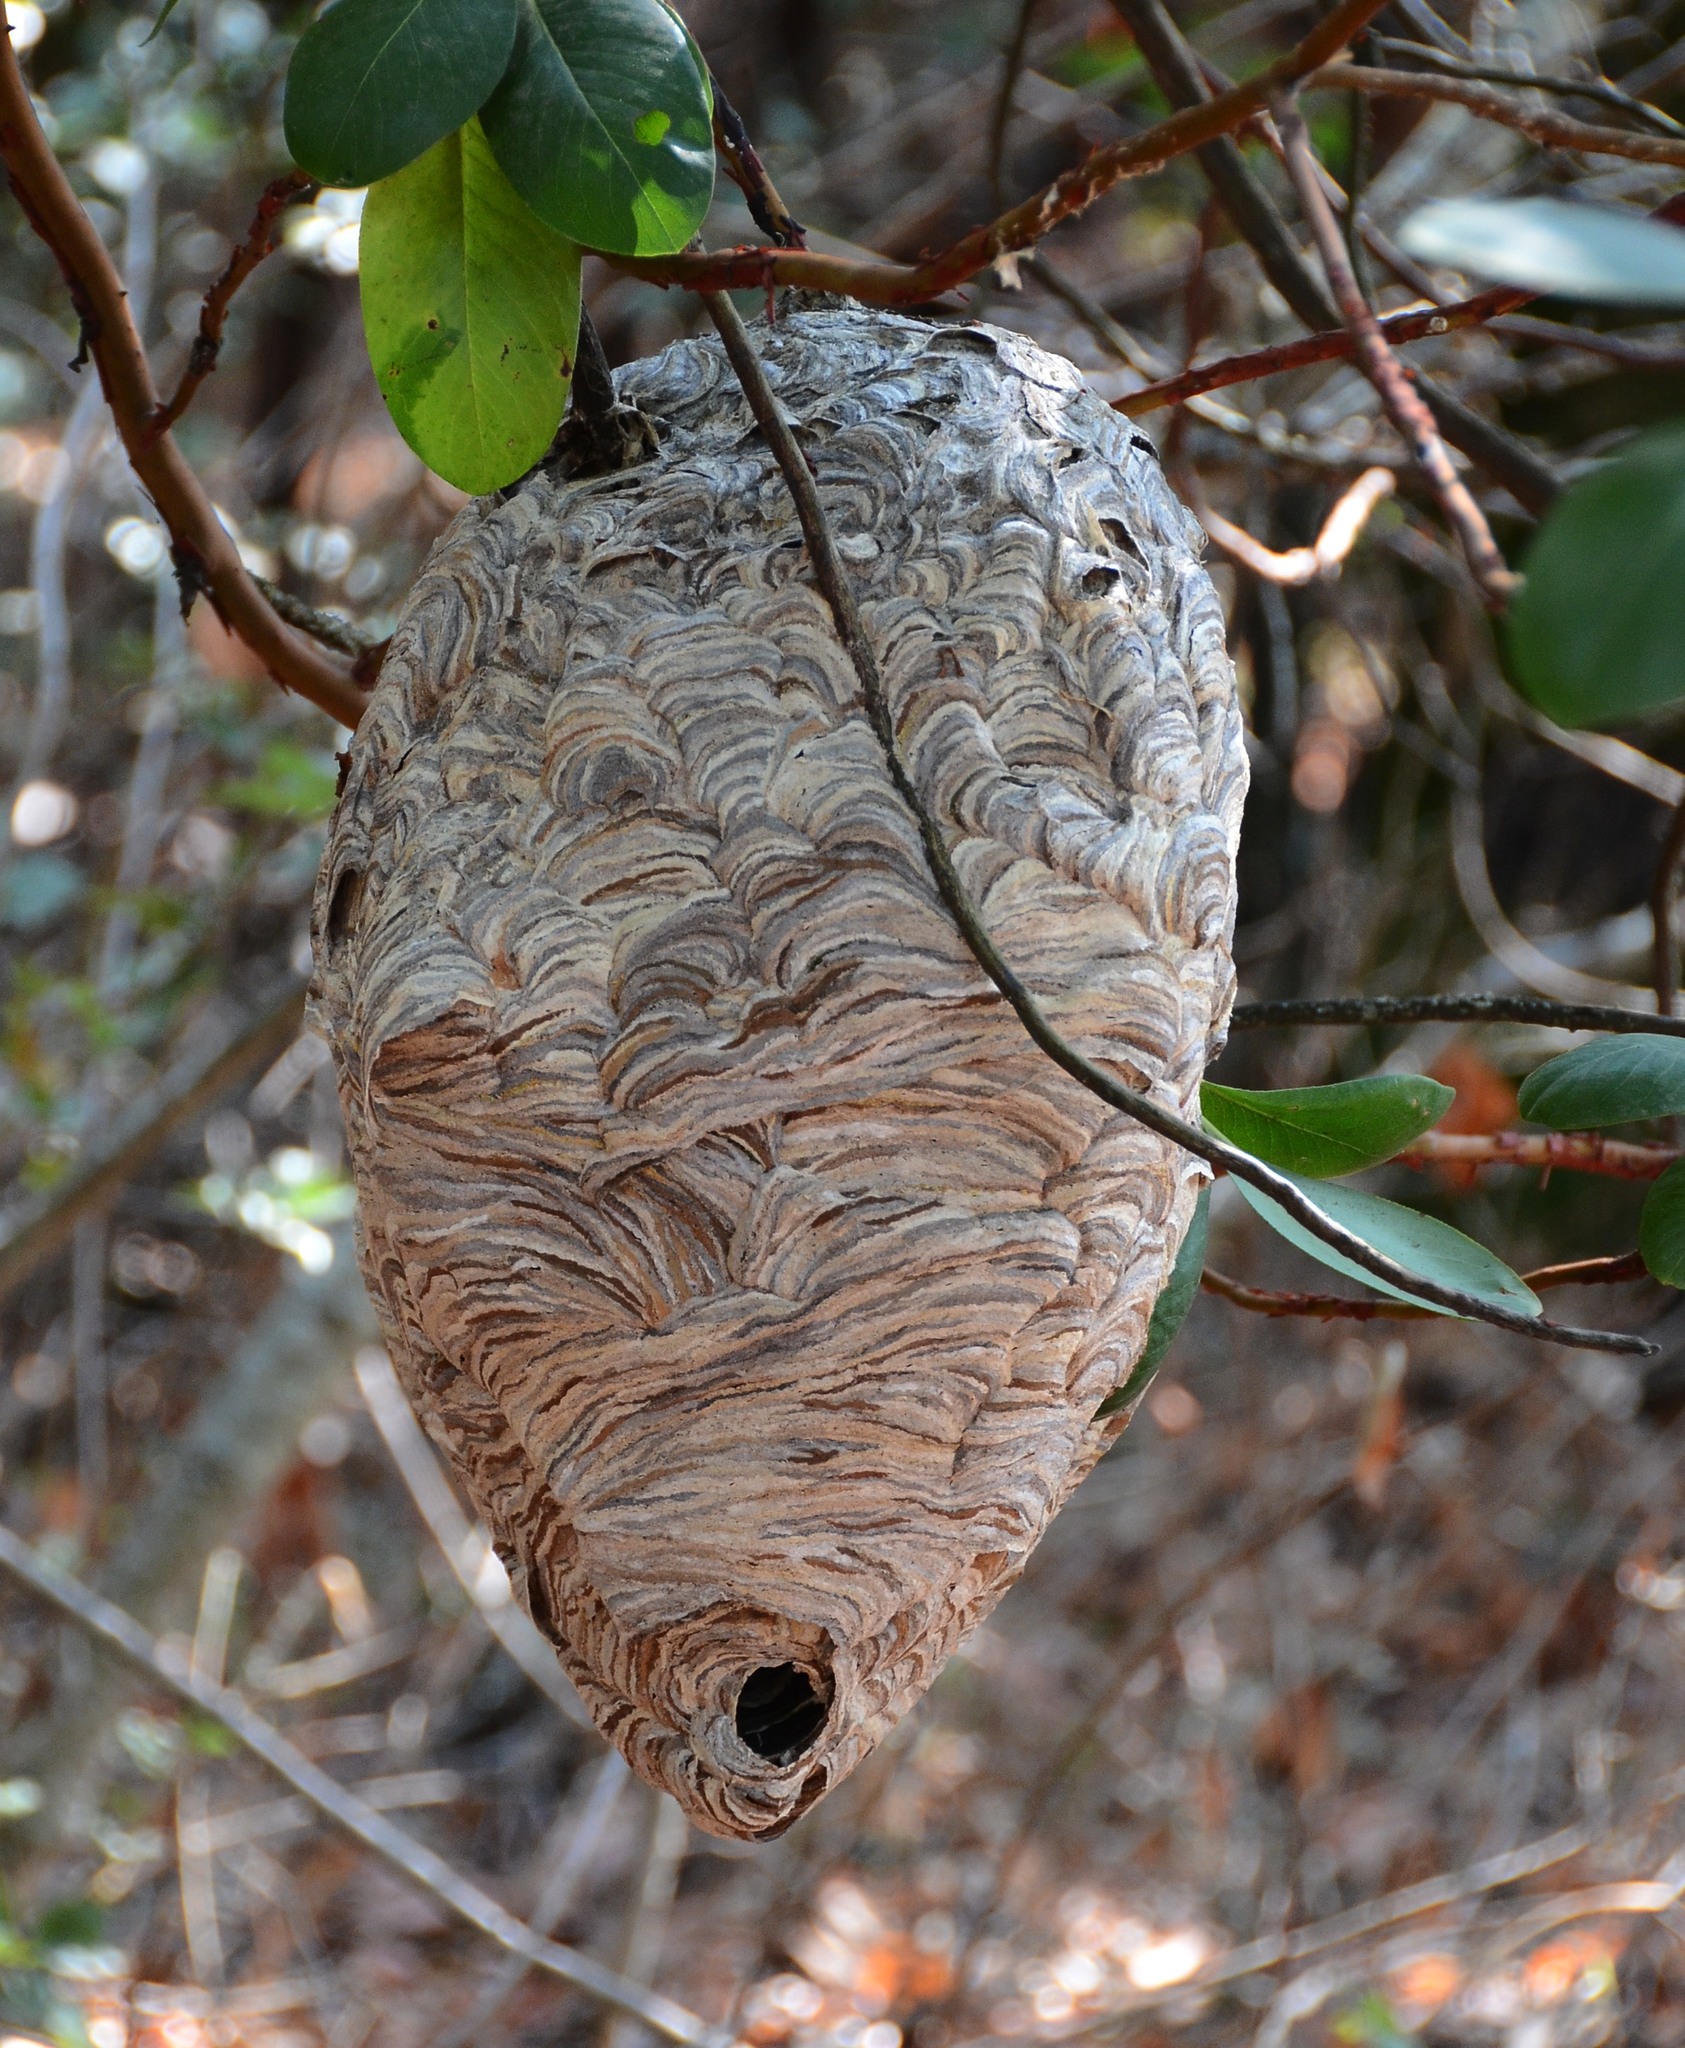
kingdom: Animalia
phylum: Arthropoda
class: Insecta
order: Hymenoptera
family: Vespidae
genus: Dolichovespula
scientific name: Dolichovespula maculata
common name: Bald-faced hornet
